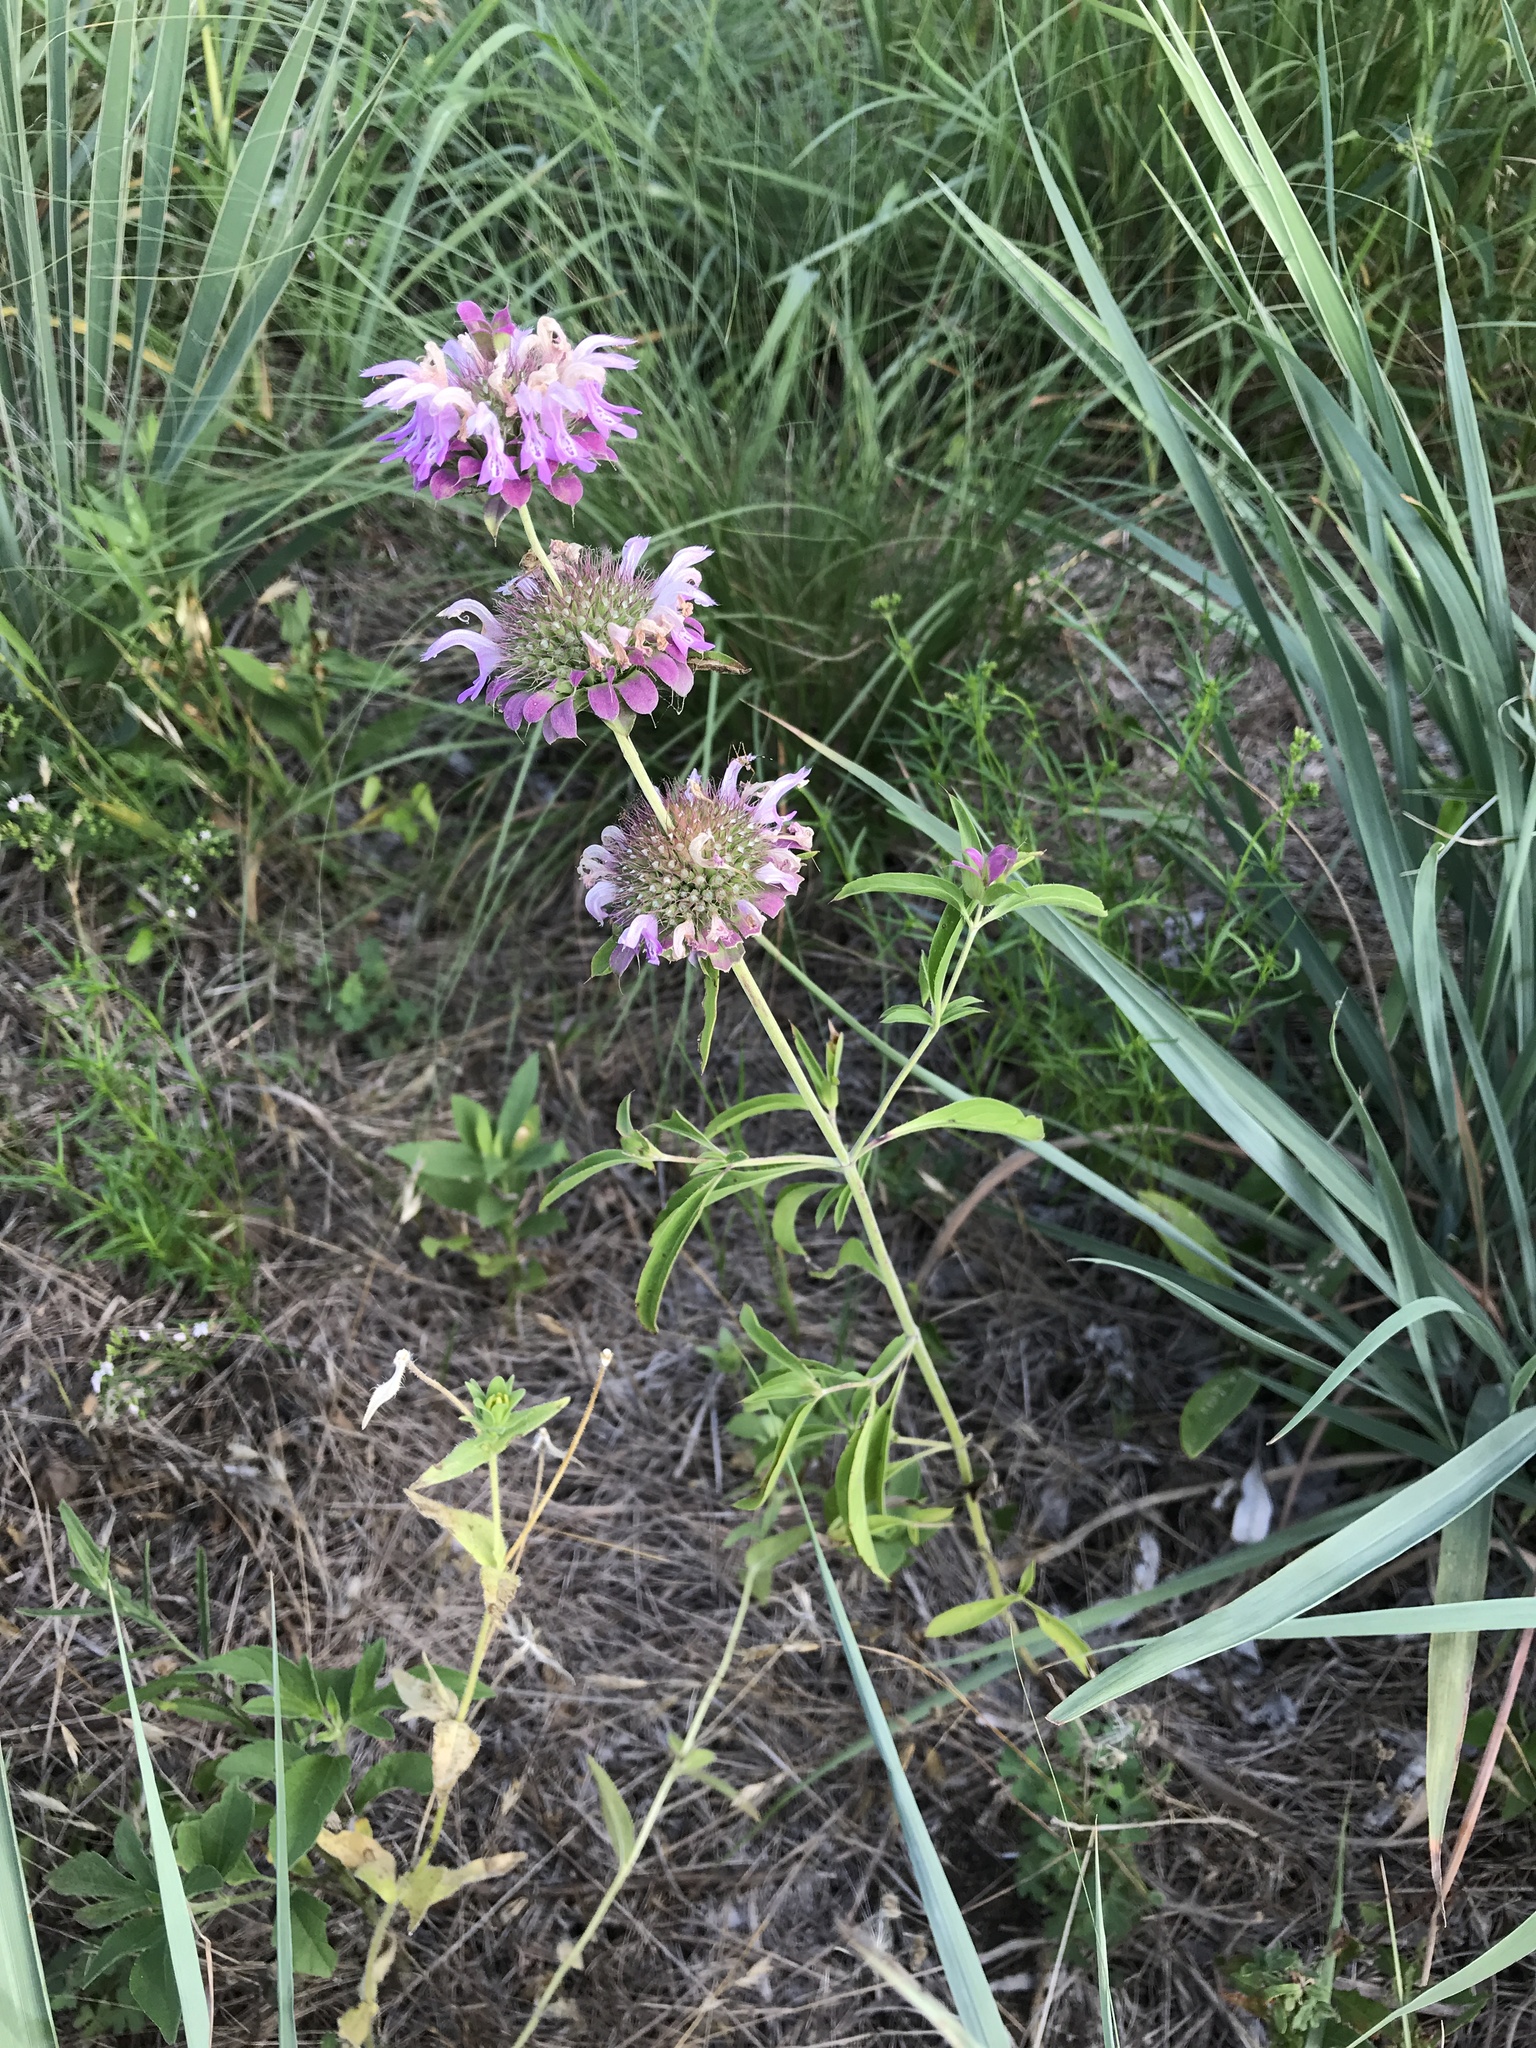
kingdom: Plantae
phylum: Tracheophyta
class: Magnoliopsida
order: Lamiales
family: Lamiaceae
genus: Monarda
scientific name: Monarda citriodora
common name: Lemon beebalm
